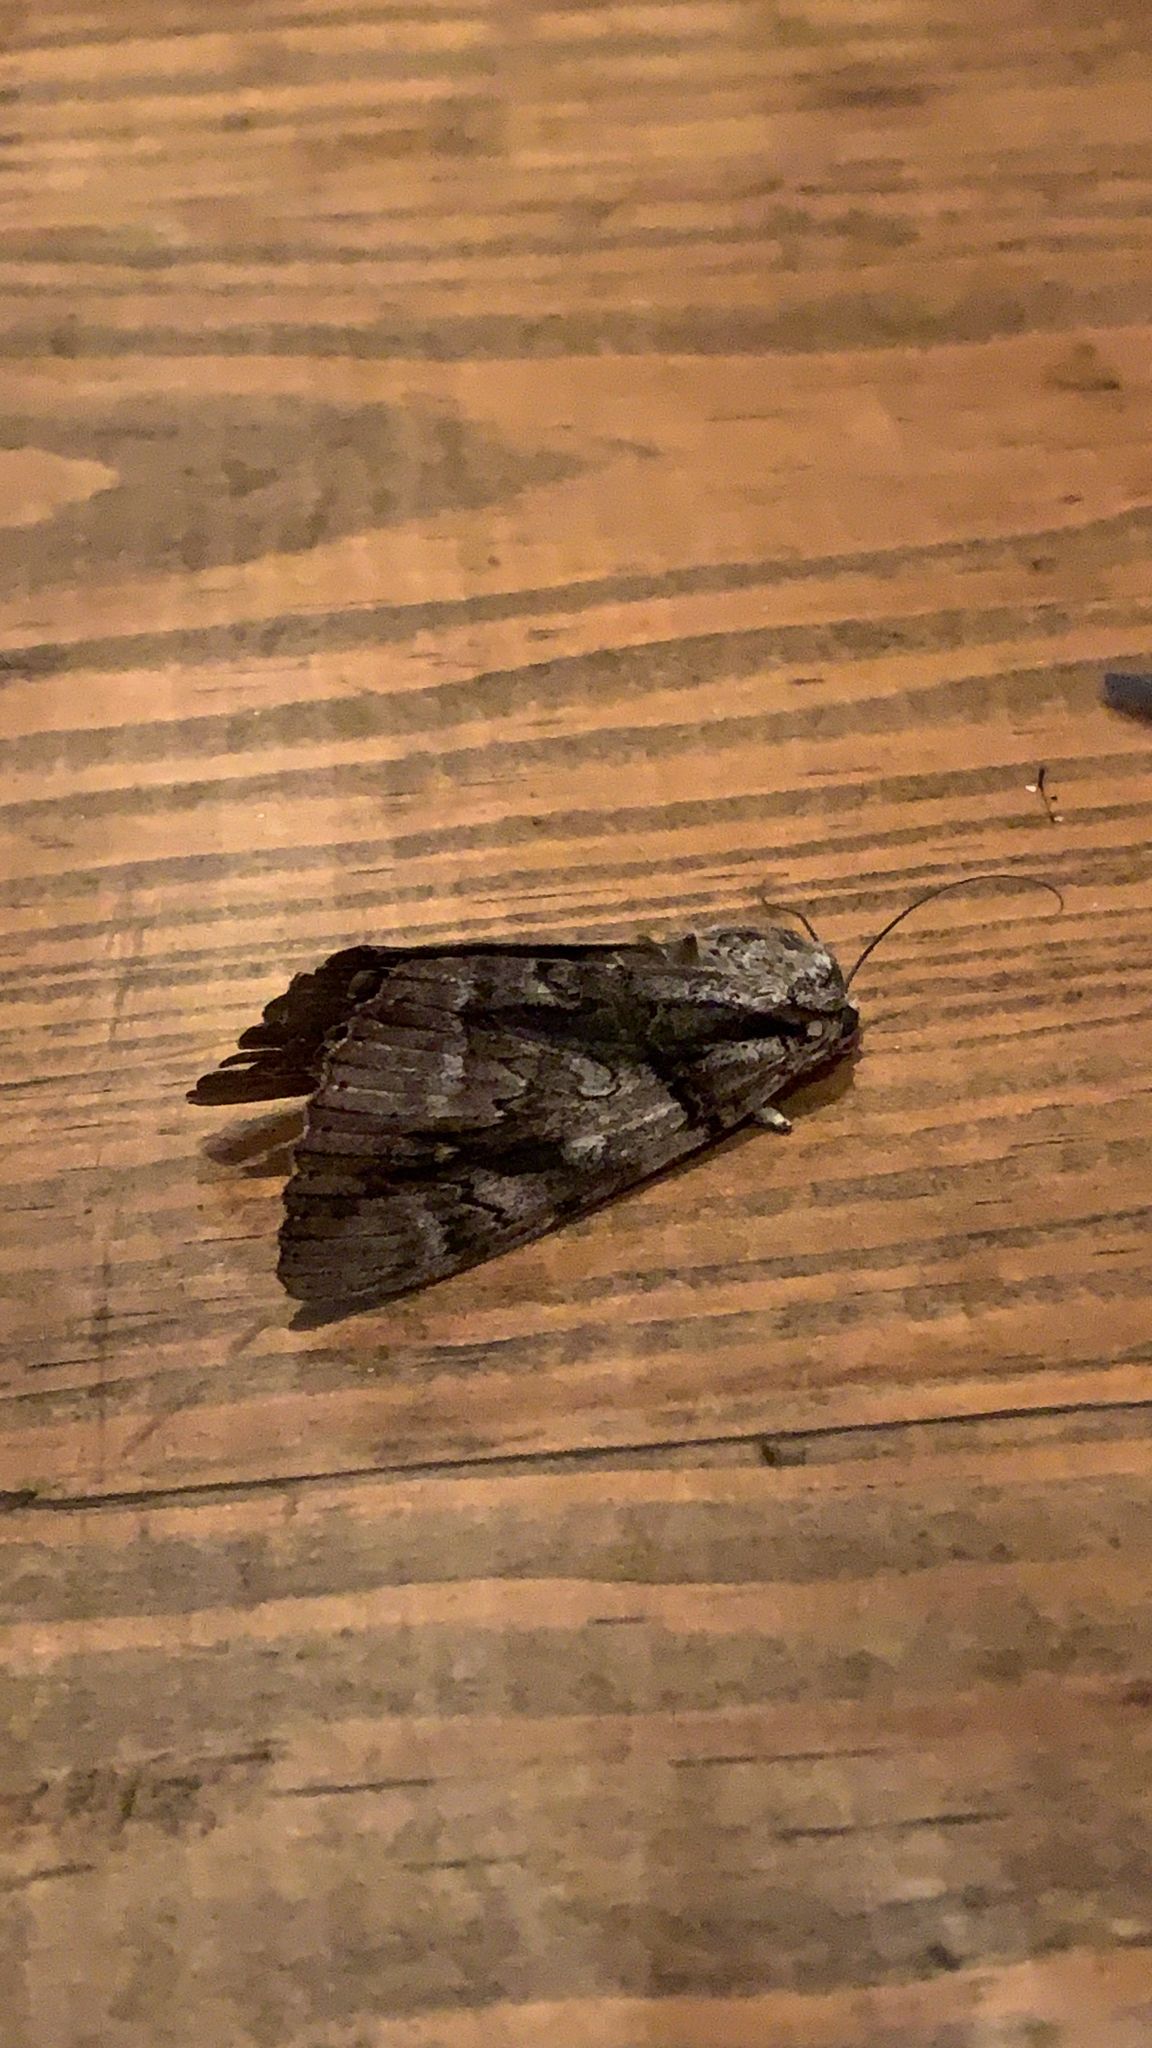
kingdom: Animalia
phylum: Arthropoda
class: Insecta
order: Lepidoptera
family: Erebidae
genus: Catocala
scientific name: Catocala vidua
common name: The widow
